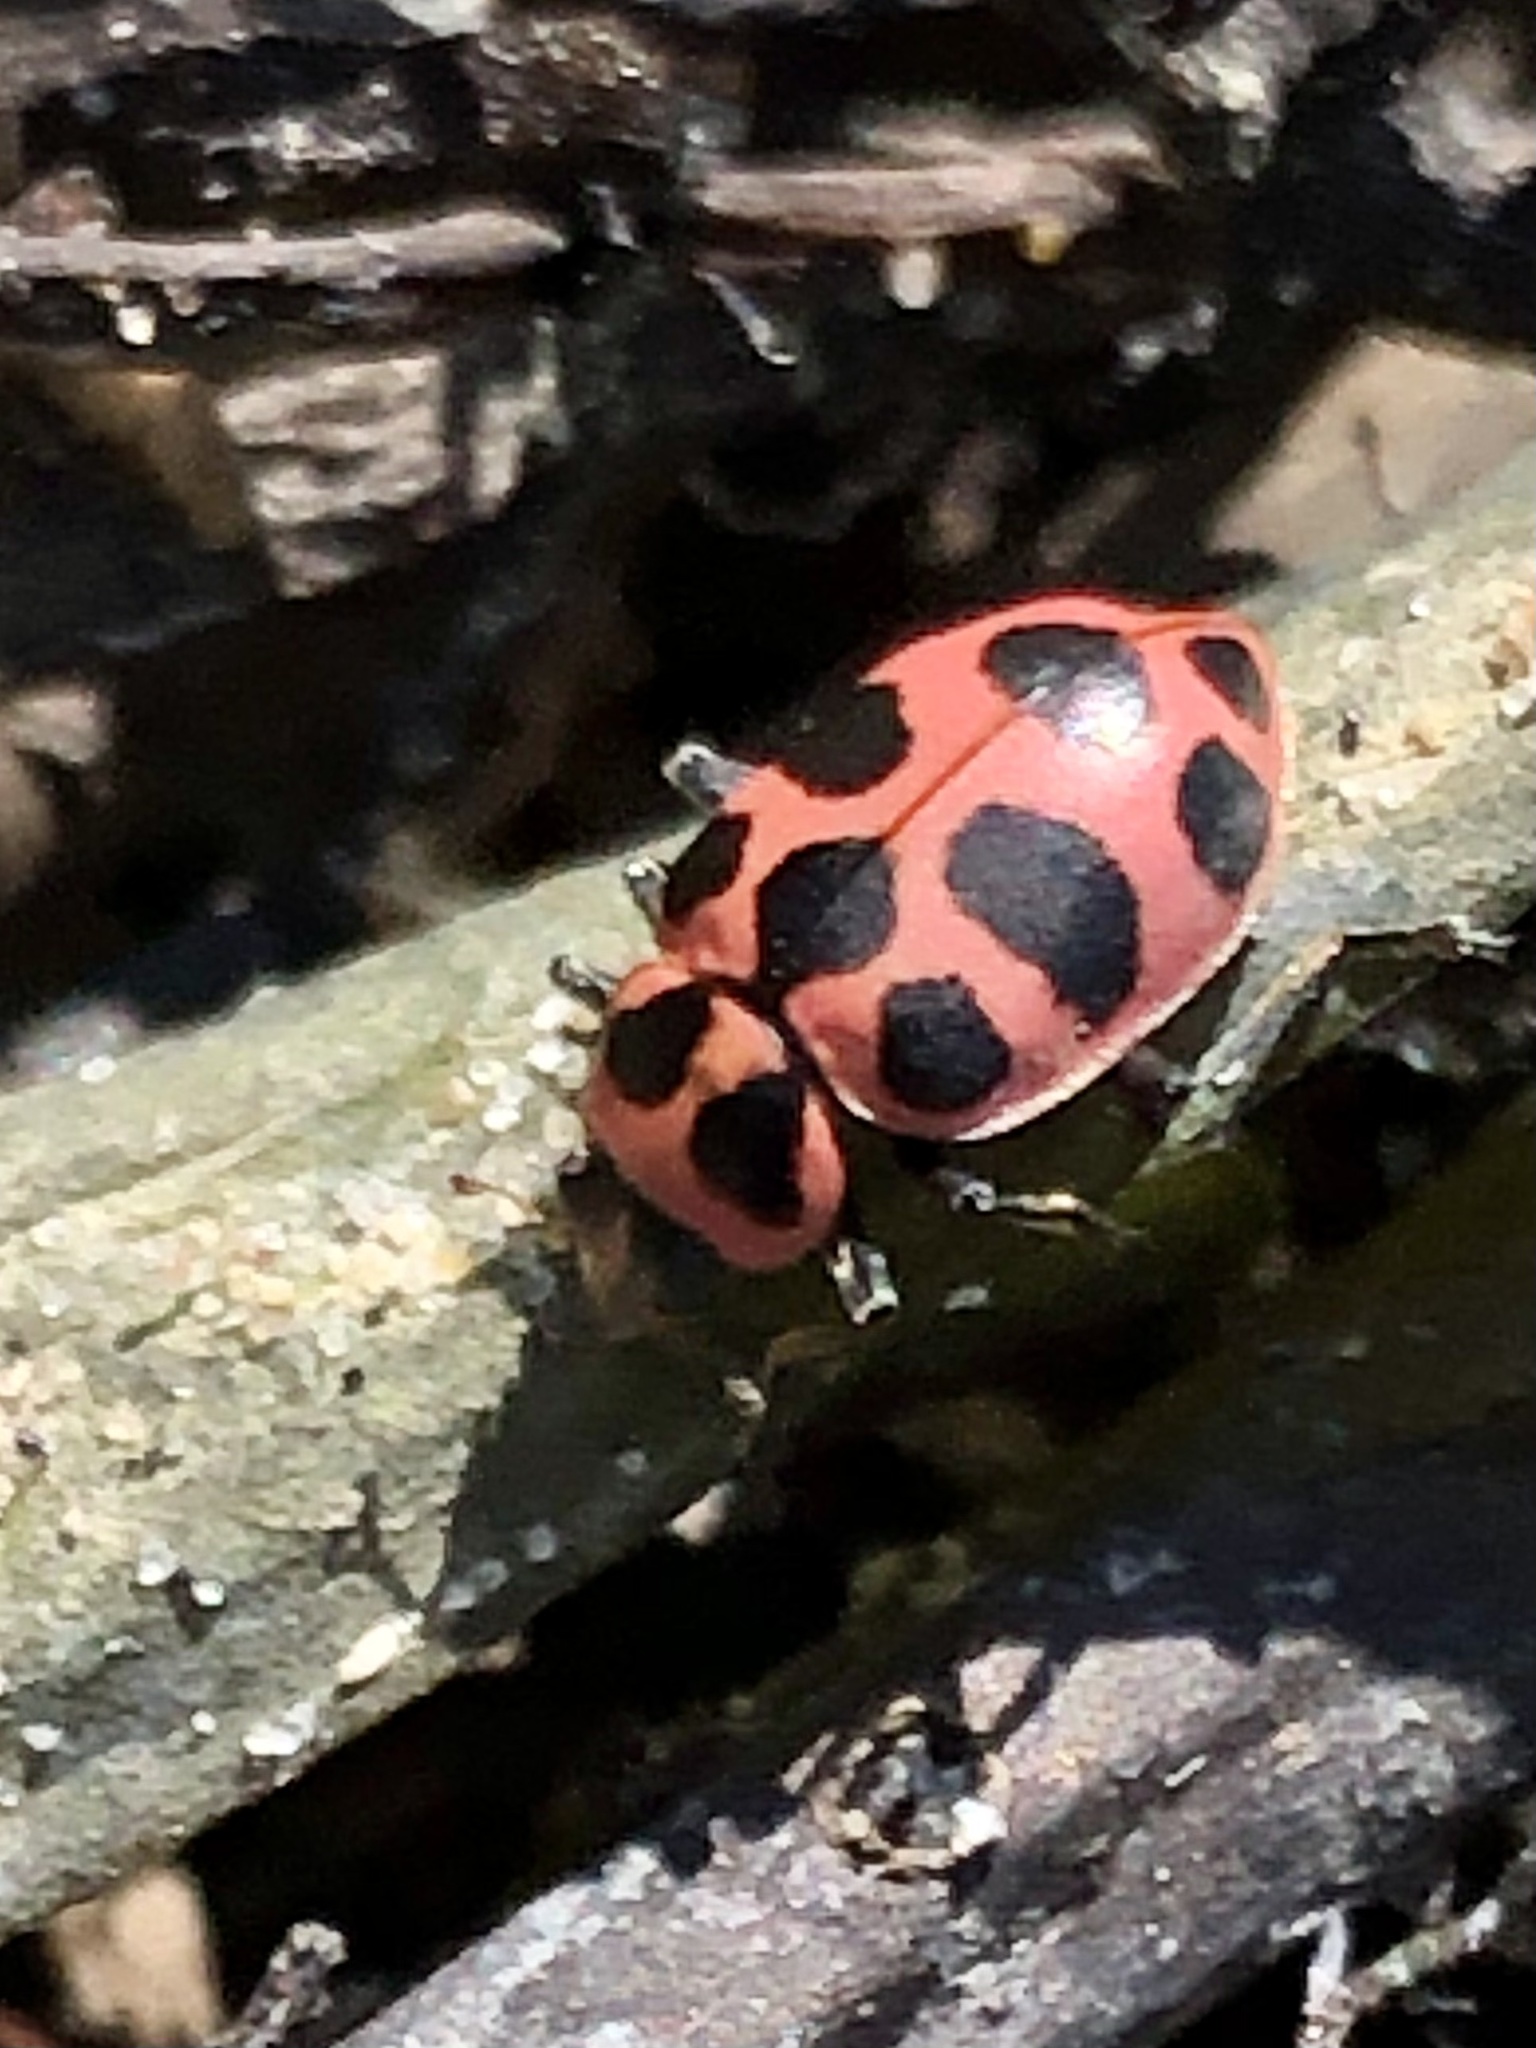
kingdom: Animalia
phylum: Arthropoda
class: Insecta
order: Coleoptera
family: Coccinellidae
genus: Coleomegilla
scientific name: Coleomegilla maculata
